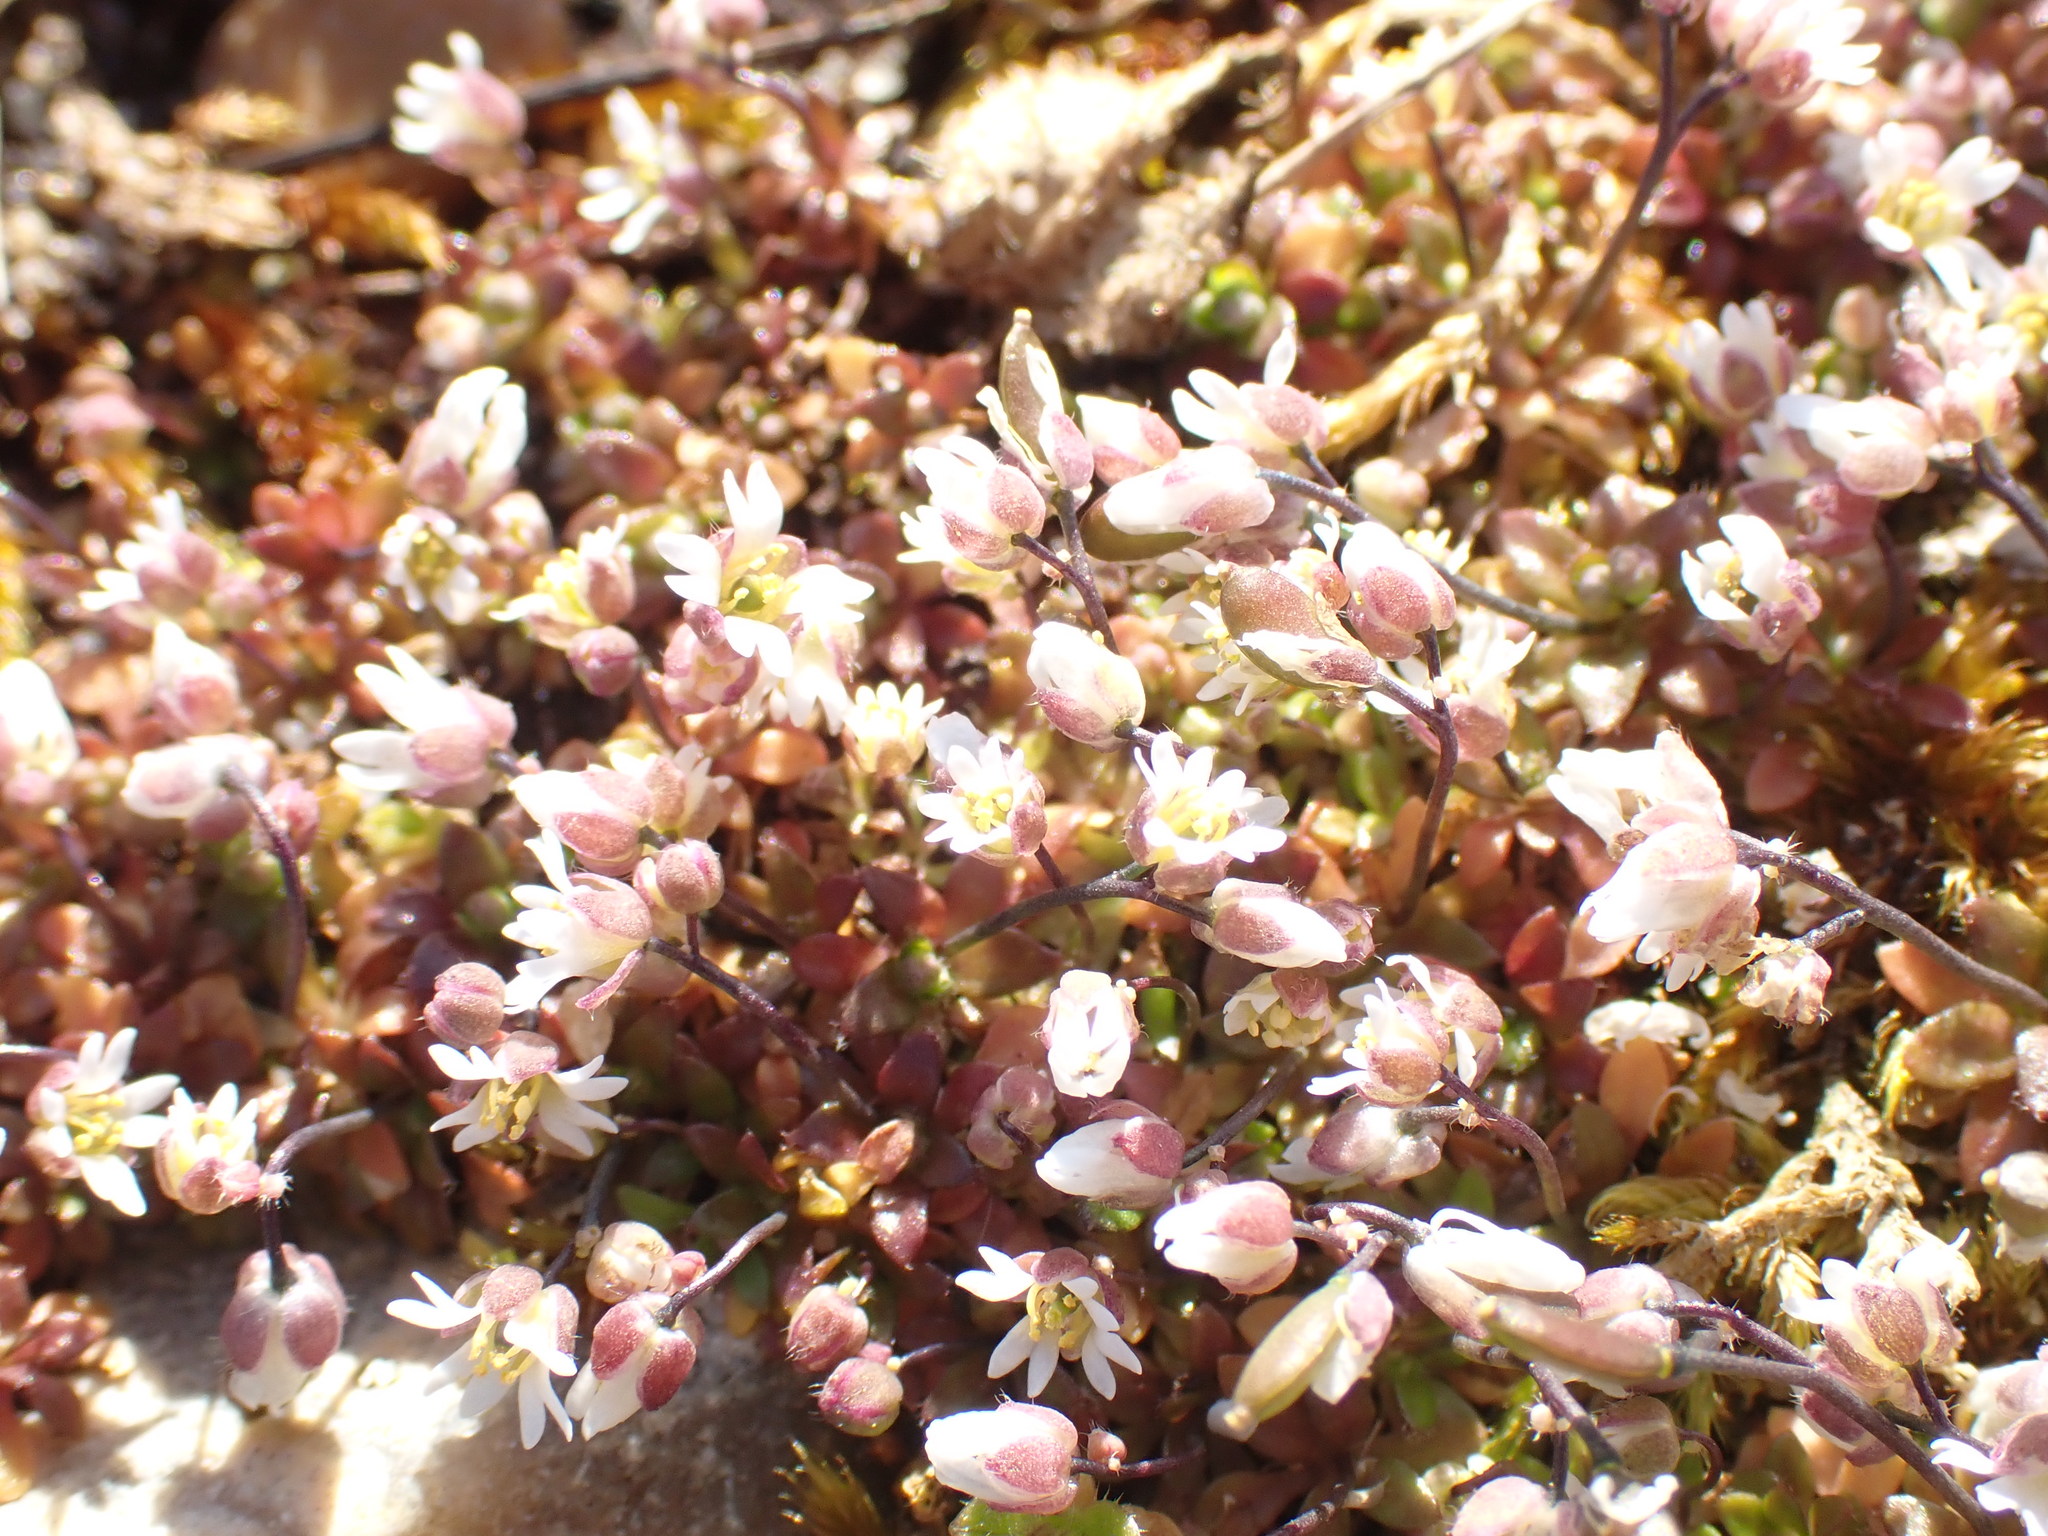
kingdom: Plantae
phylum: Tracheophyta
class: Magnoliopsida
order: Brassicales
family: Brassicaceae
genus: Draba
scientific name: Draba verna
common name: Spring draba
